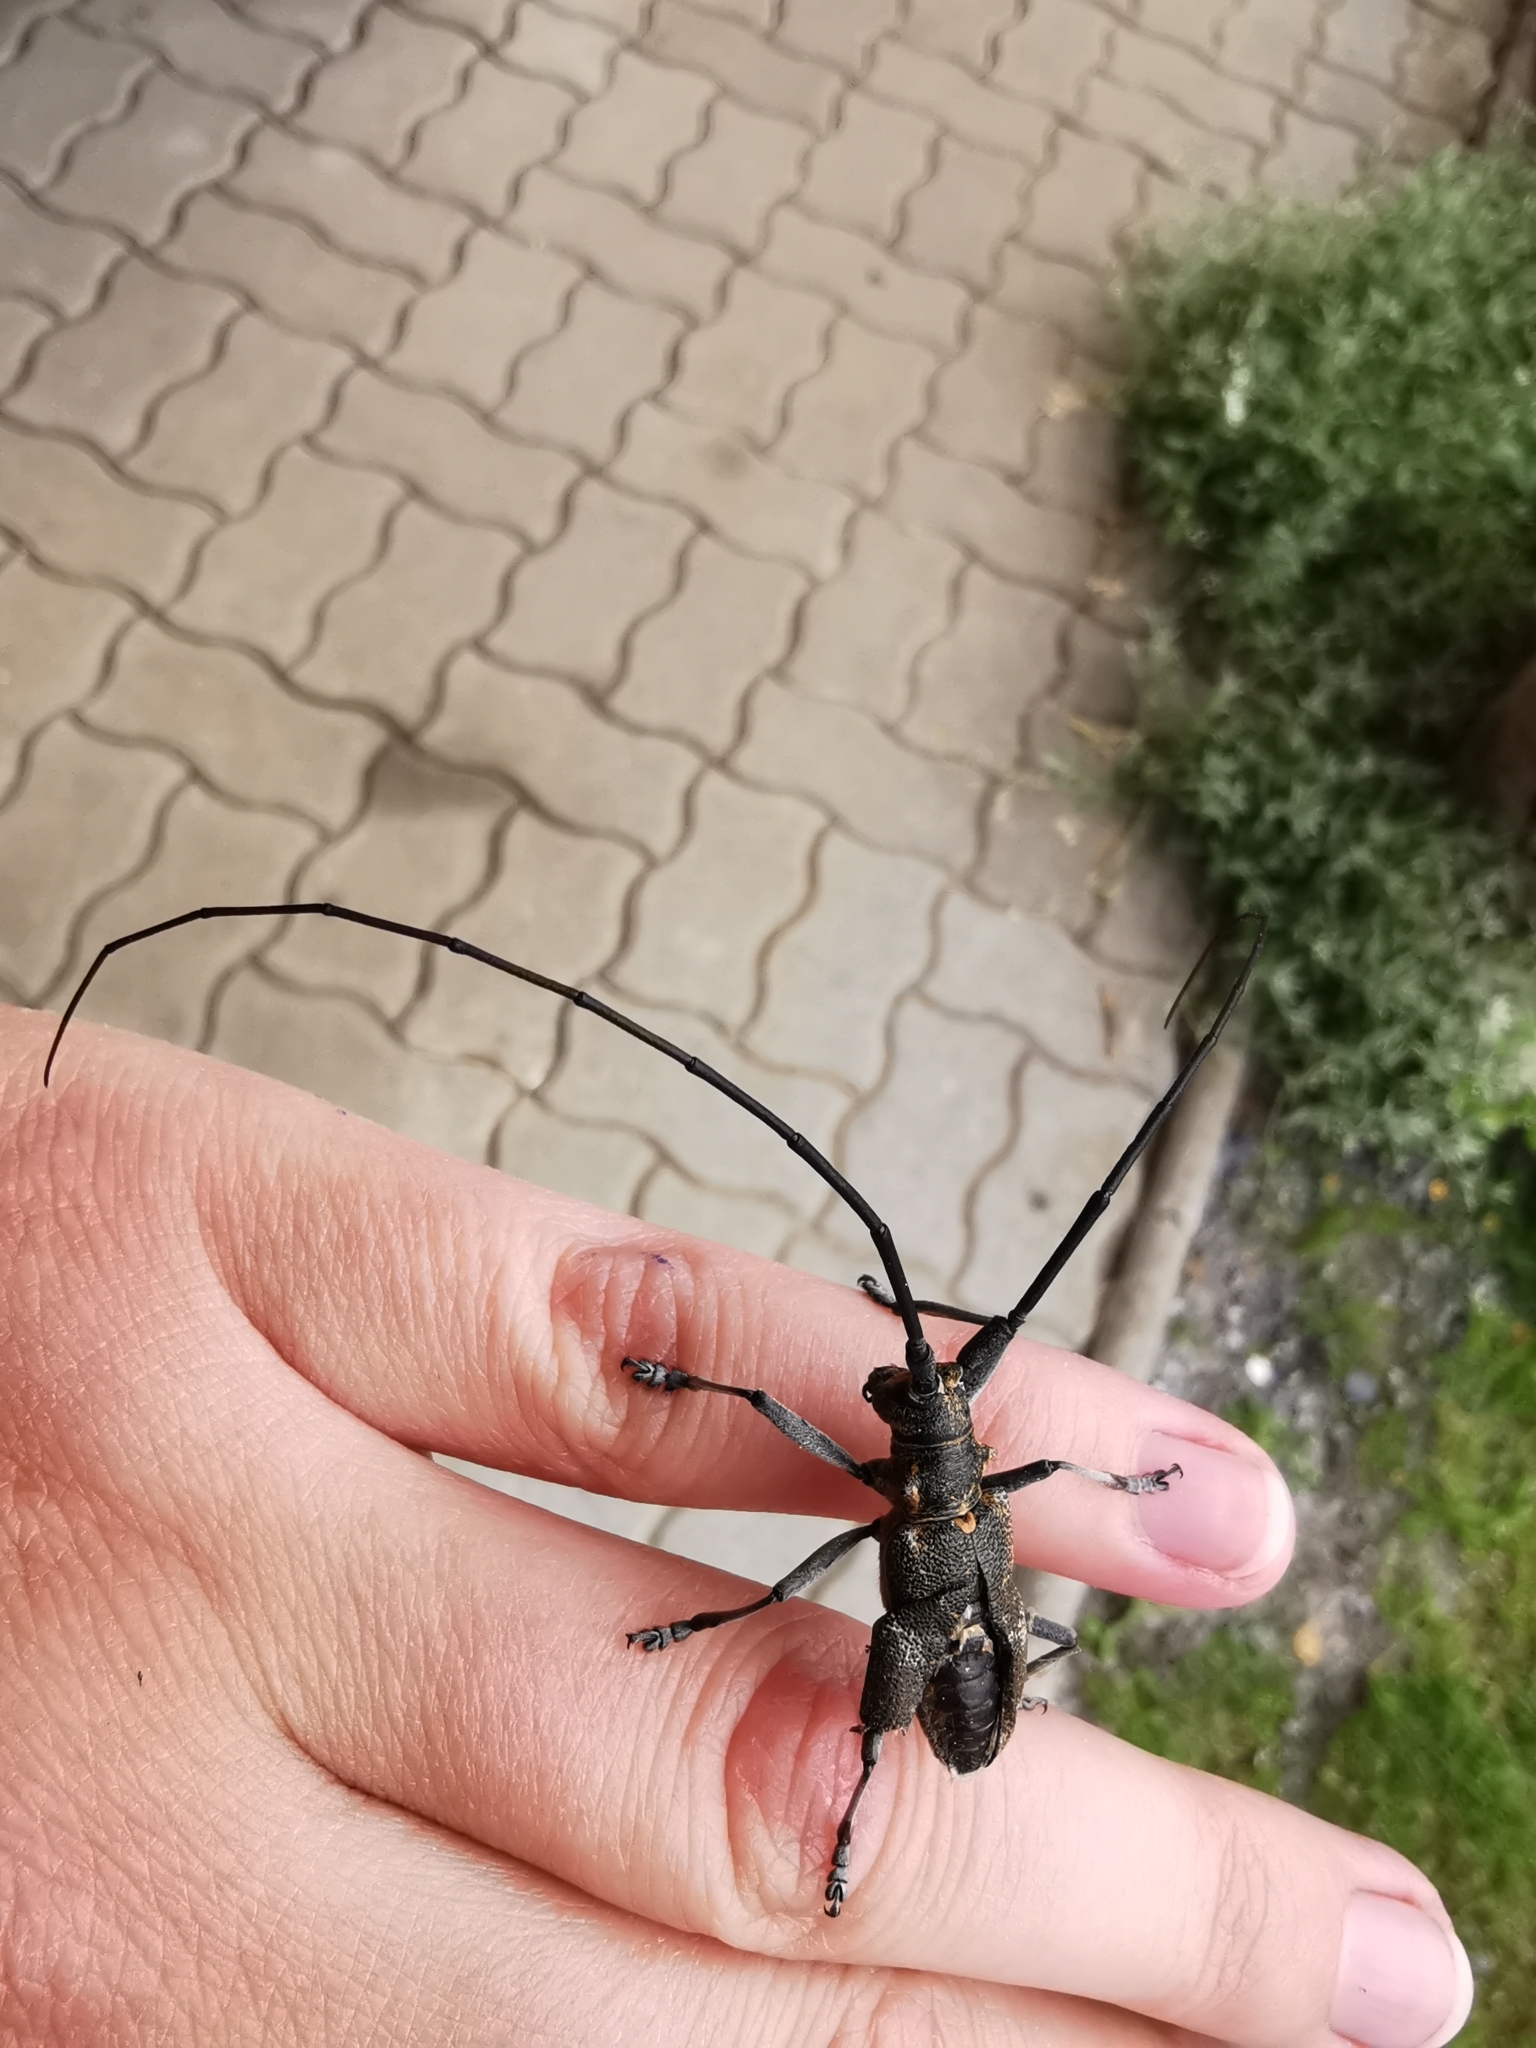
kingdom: Animalia
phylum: Arthropoda
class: Insecta
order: Coleoptera
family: Cerambycidae
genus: Monochamus
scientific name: Monochamus galloprovincialis
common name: Pine sawyer
